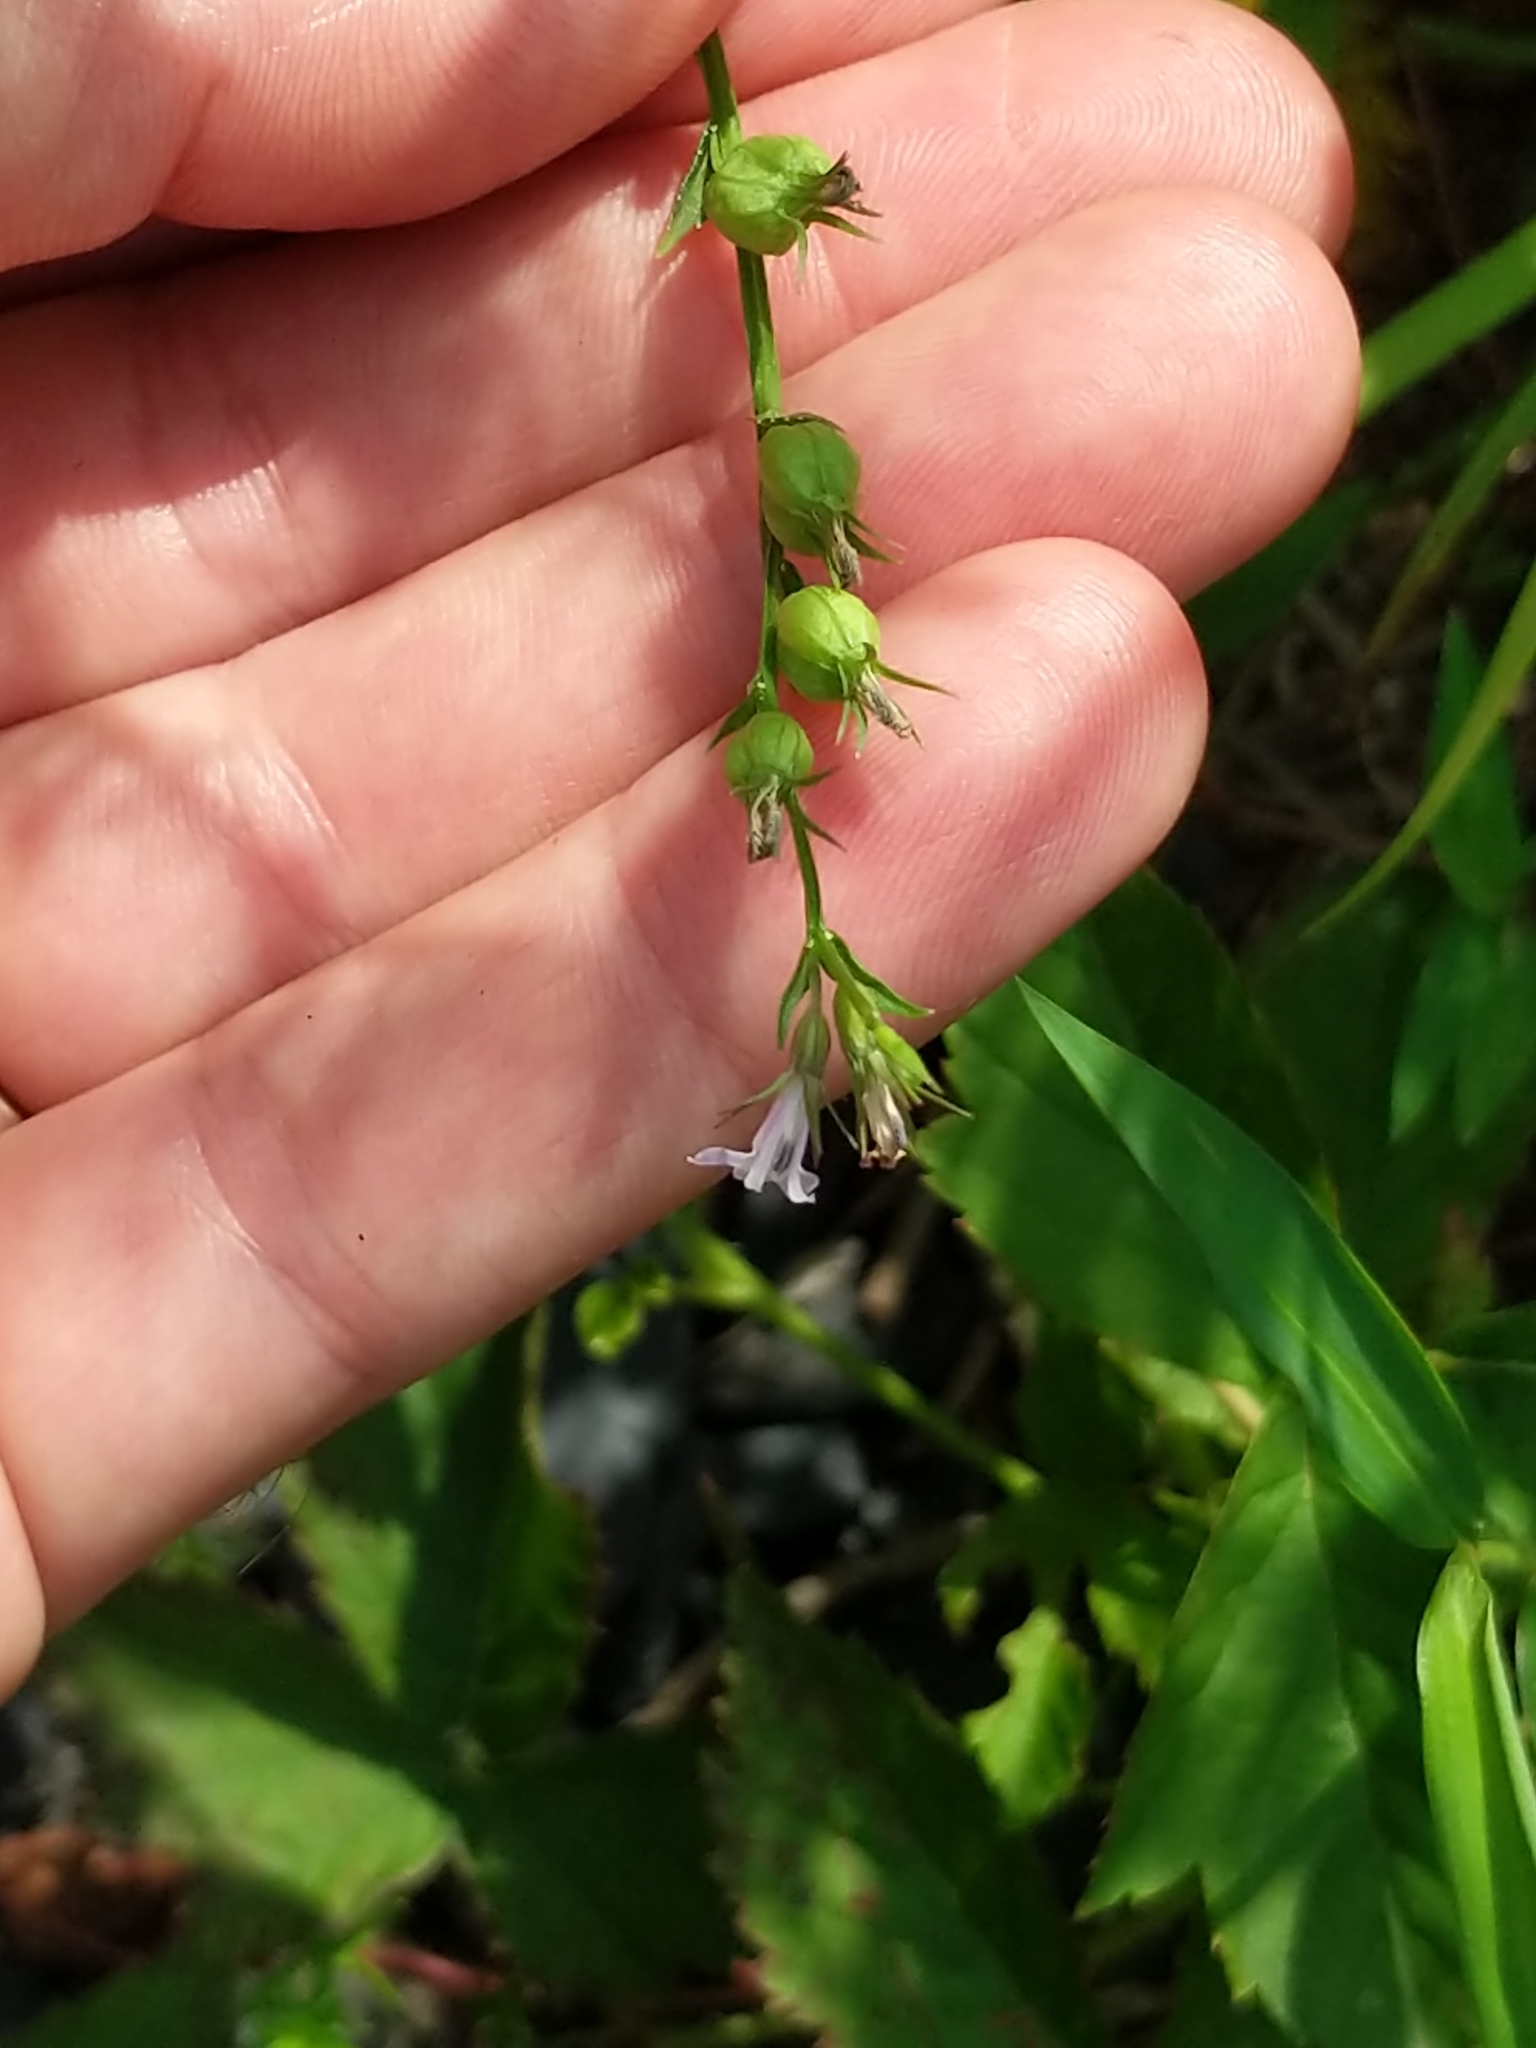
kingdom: Plantae
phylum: Tracheophyta
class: Magnoliopsida
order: Asterales
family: Campanulaceae
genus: Lobelia
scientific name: Lobelia inflata
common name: Indian tobacco
